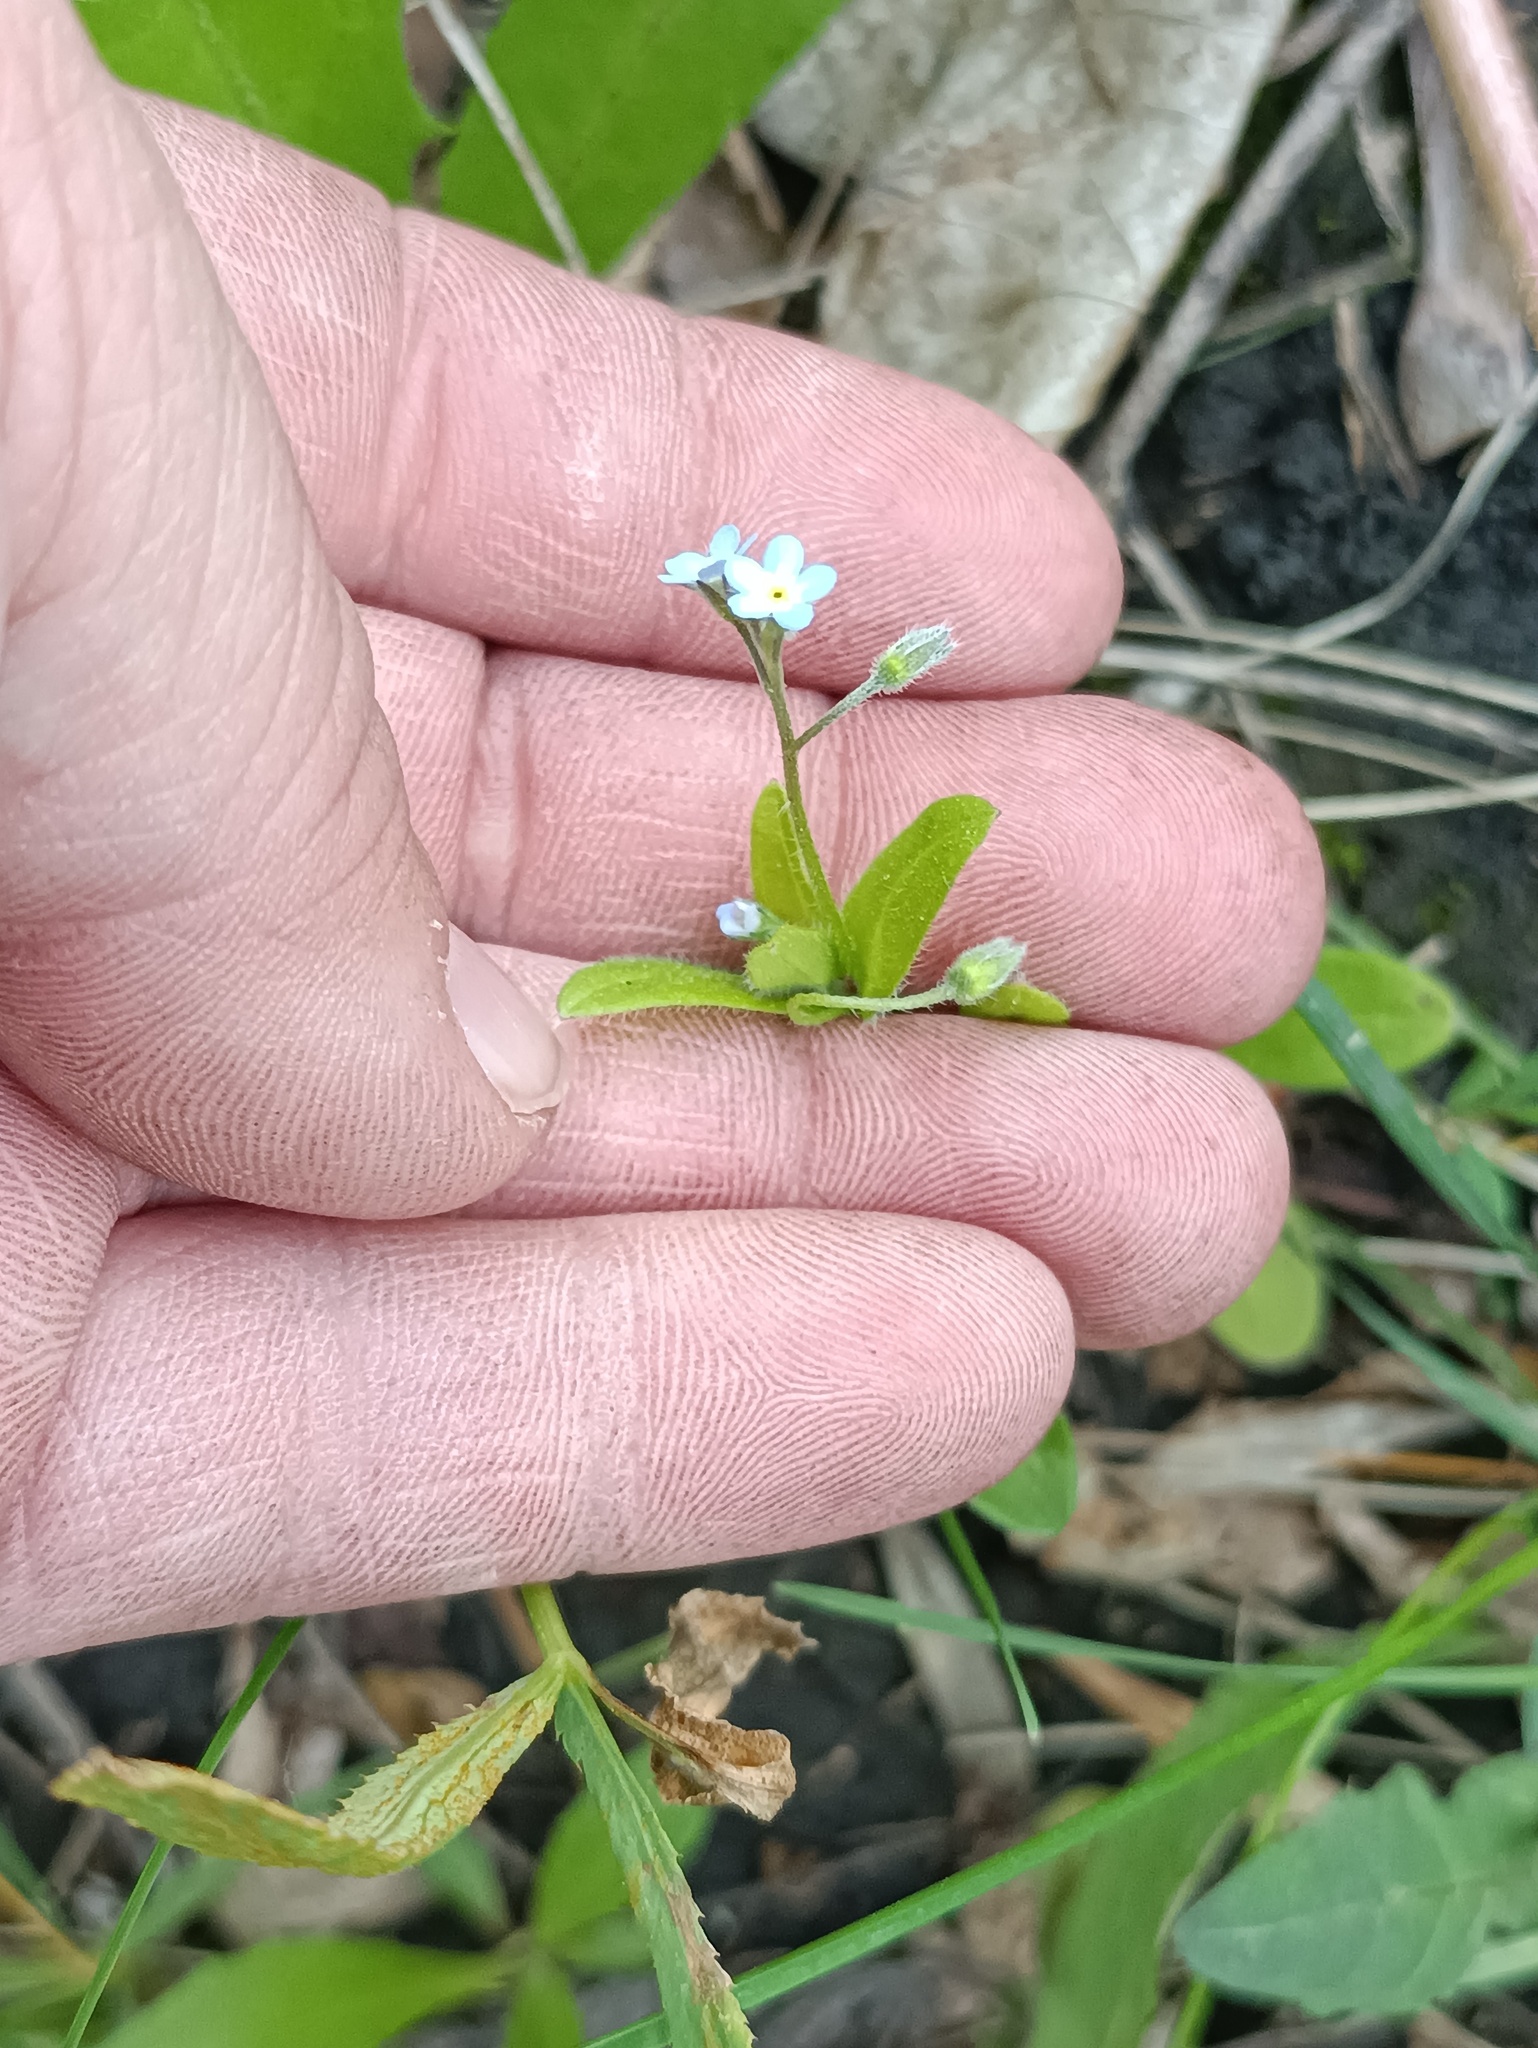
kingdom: Plantae
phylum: Tracheophyta
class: Magnoliopsida
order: Boraginales
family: Boraginaceae
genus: Myosotis
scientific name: Myosotis sparsiflora
